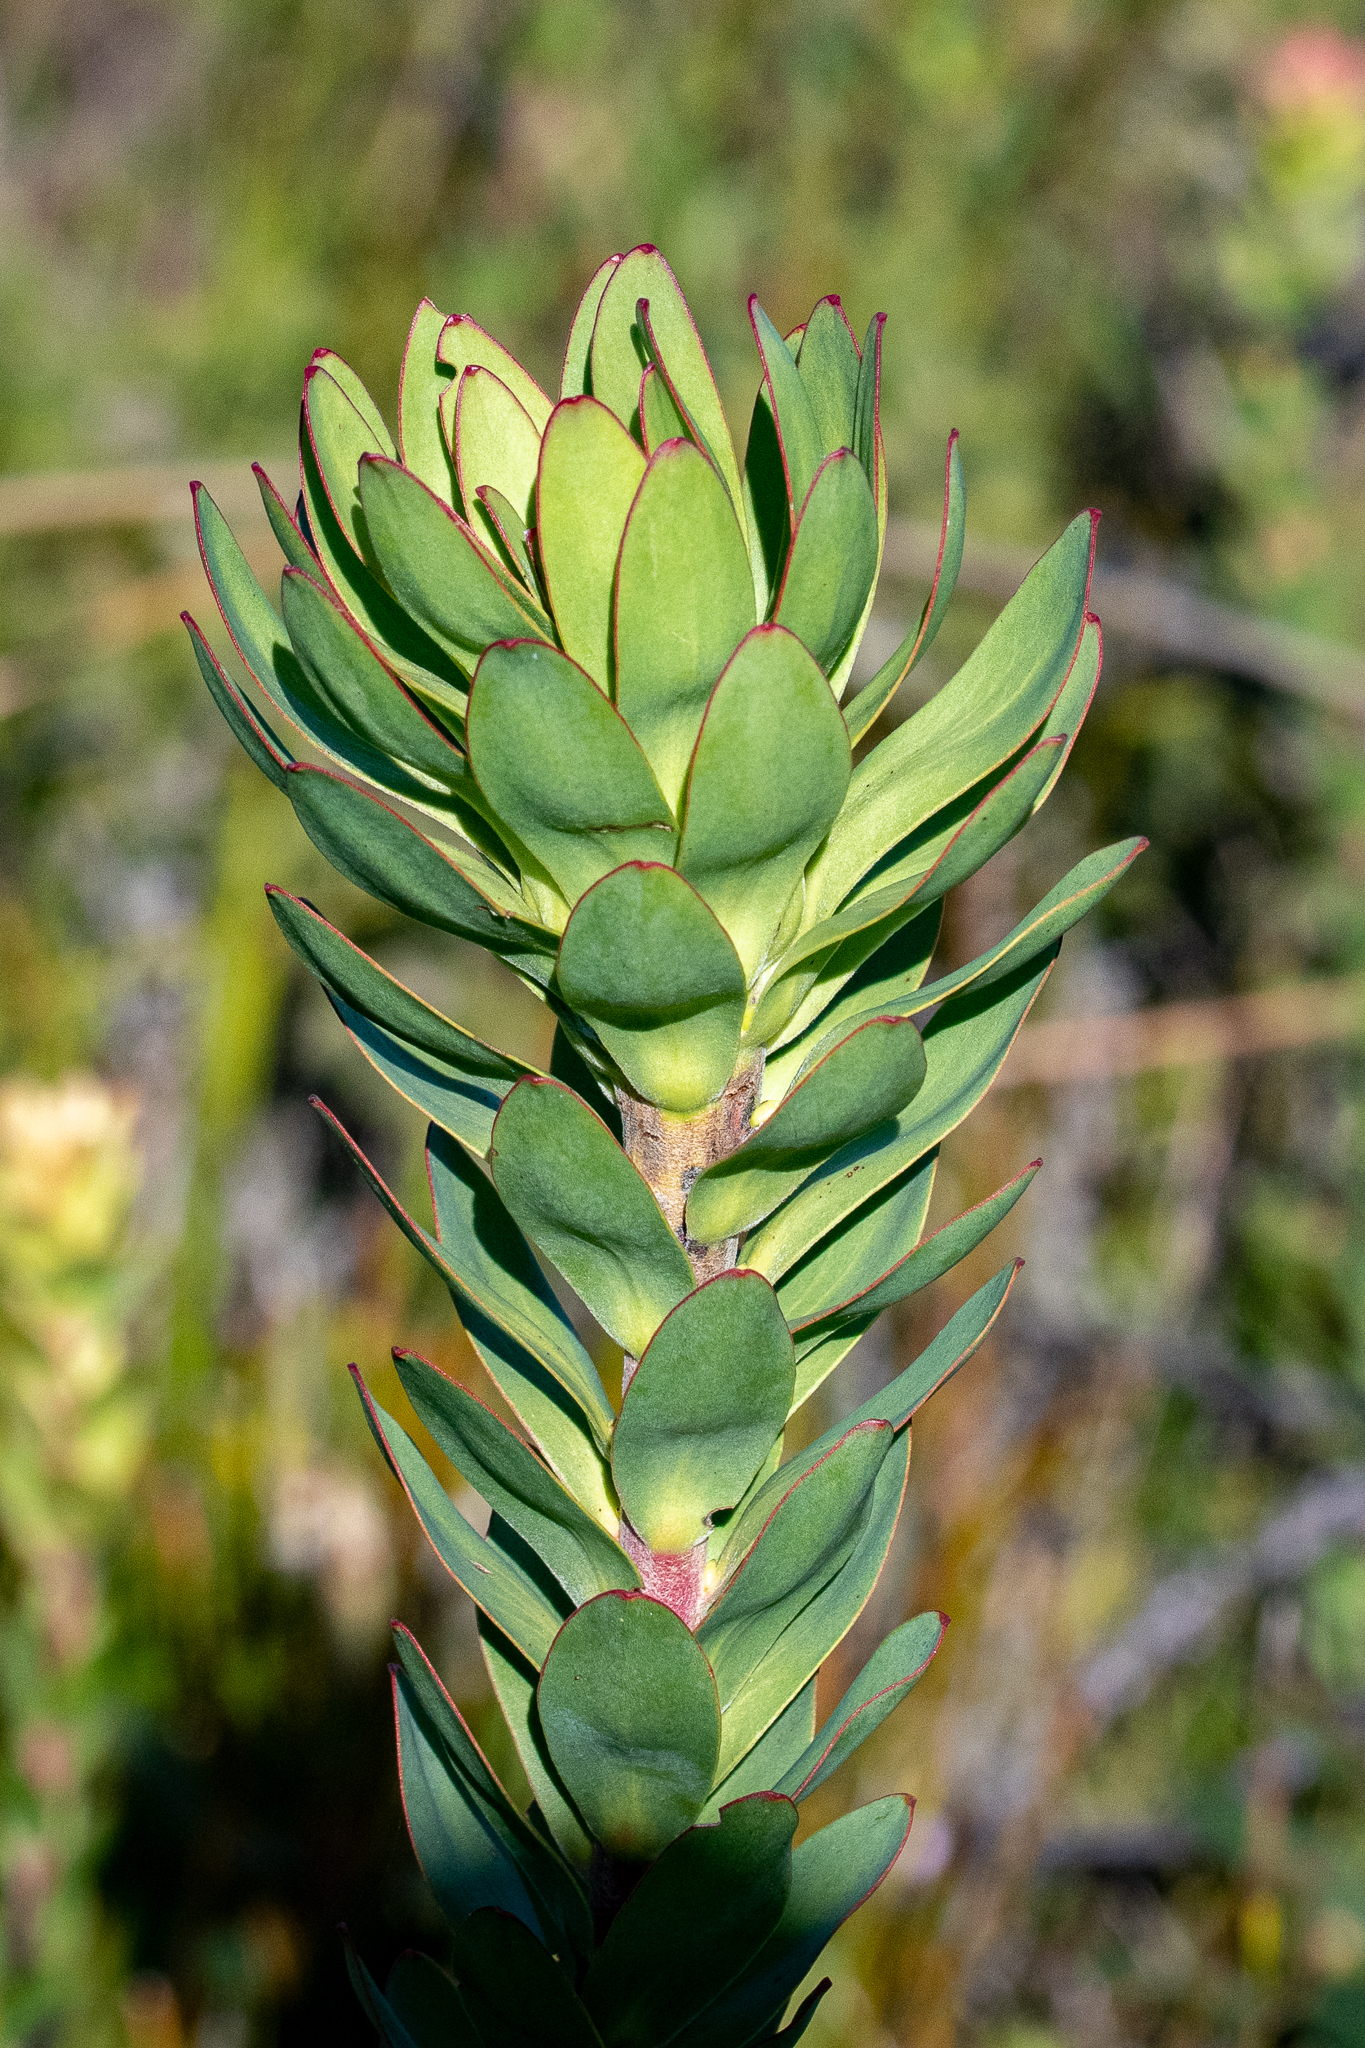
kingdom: Plantae
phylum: Tracheophyta
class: Magnoliopsida
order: Proteales
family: Proteaceae
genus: Leucadendron
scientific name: Leucadendron elimense
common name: Elim conebush
